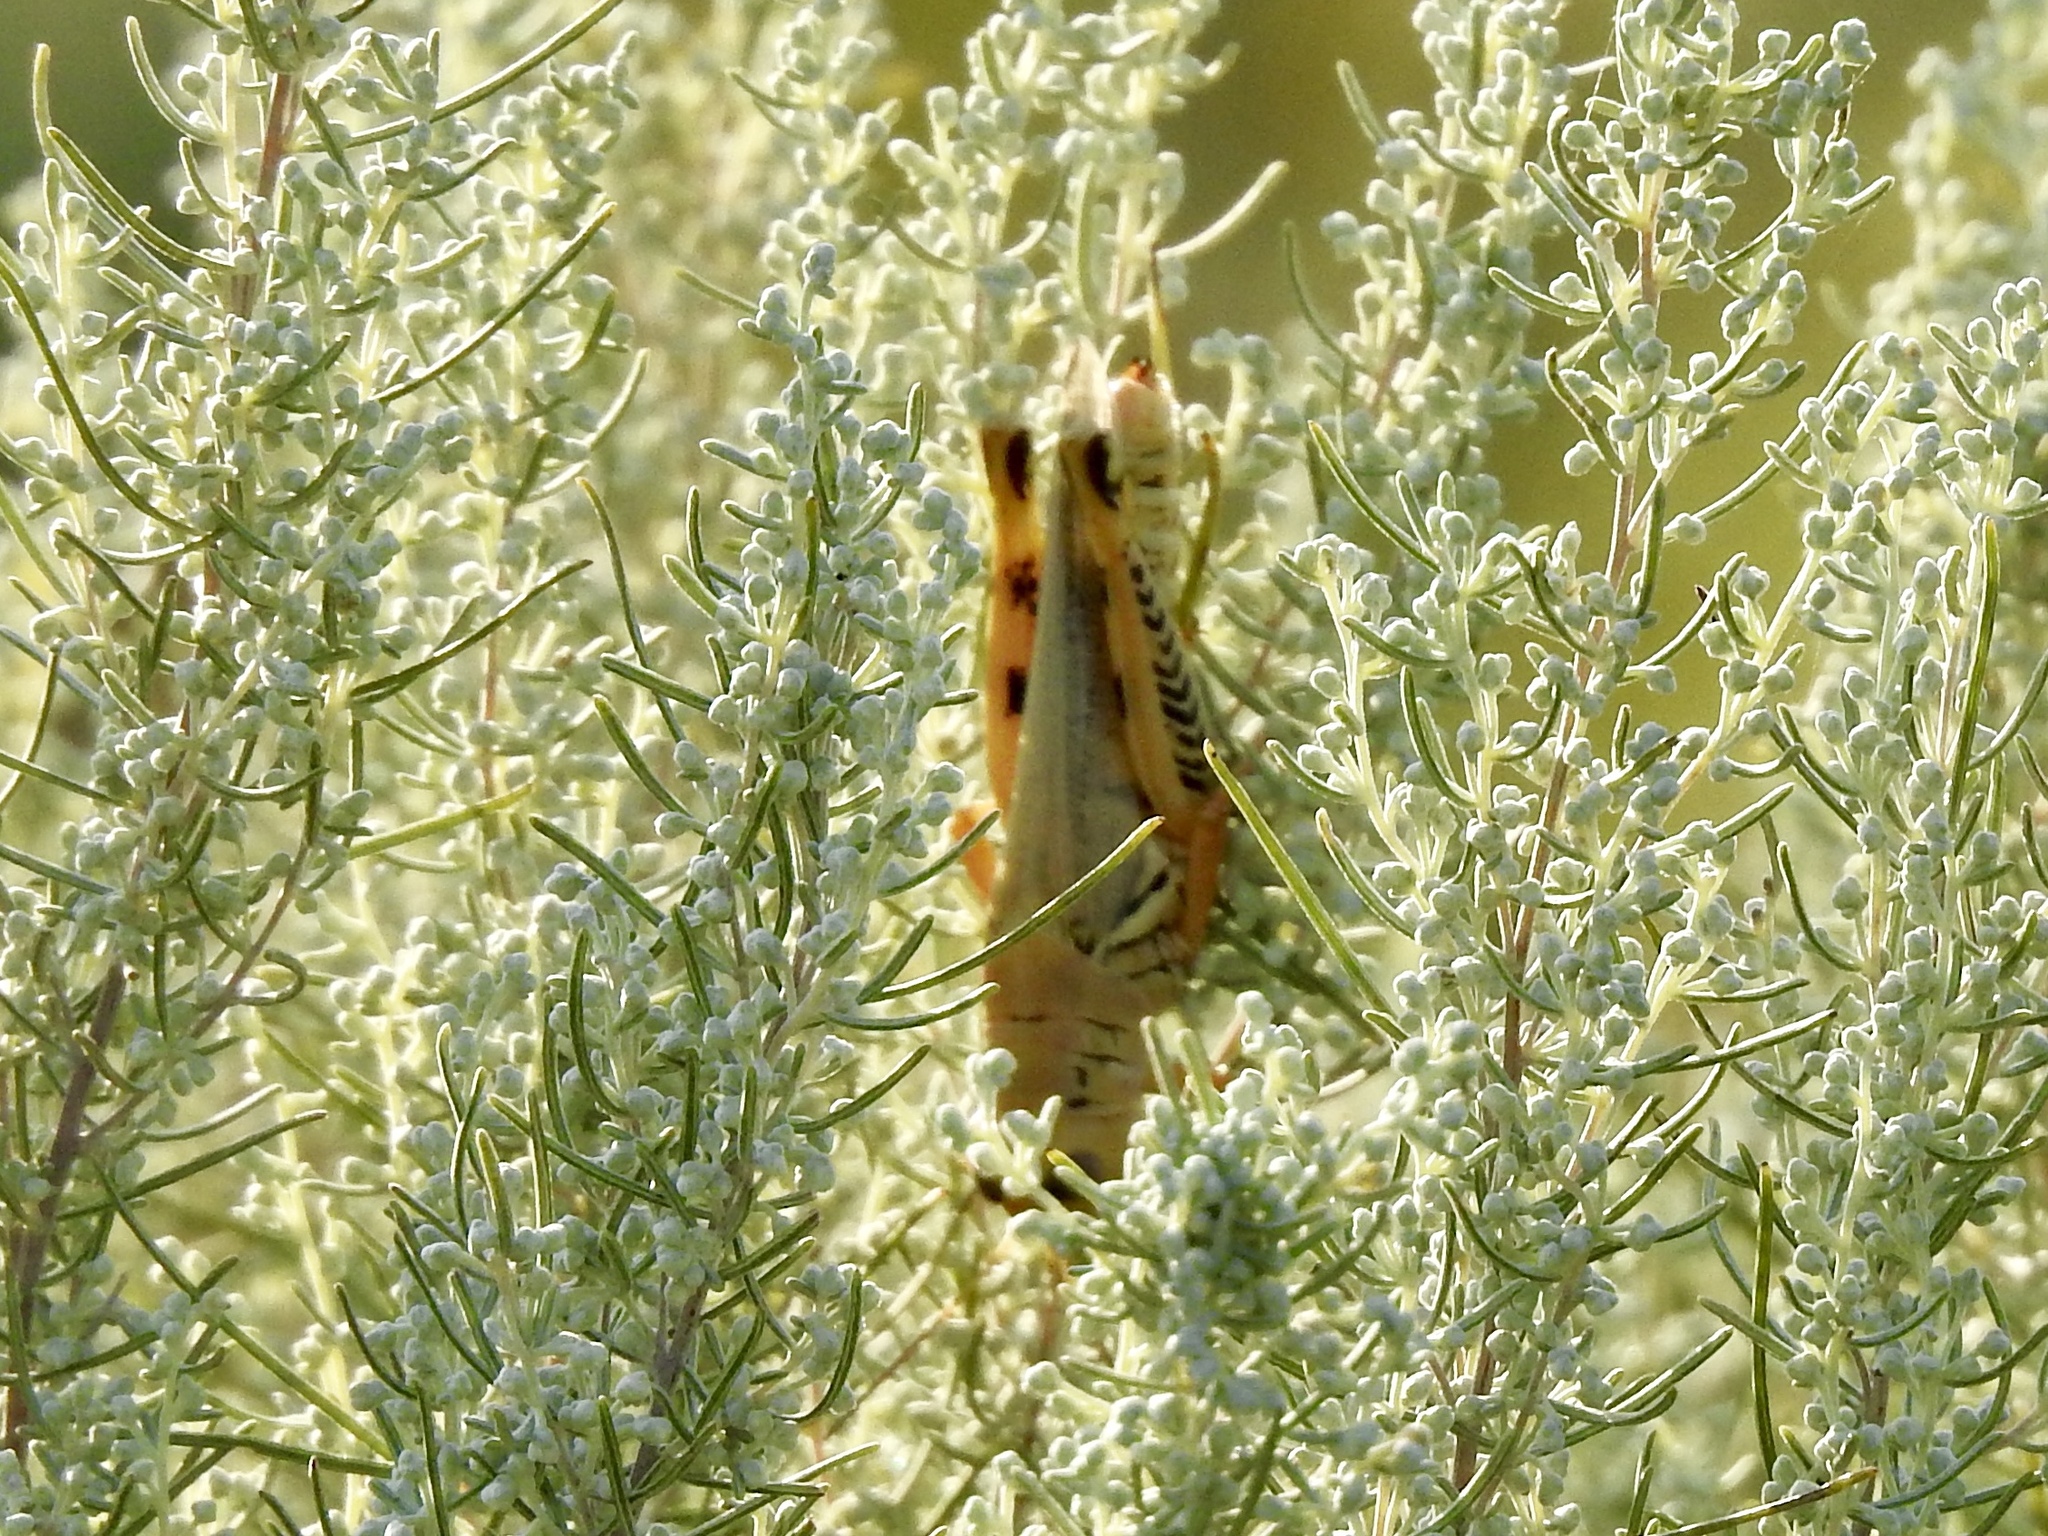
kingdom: Animalia
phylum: Arthropoda
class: Insecta
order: Orthoptera
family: Acrididae
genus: Melanoplus
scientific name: Melanoplus differentialis
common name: Differential grasshopper
